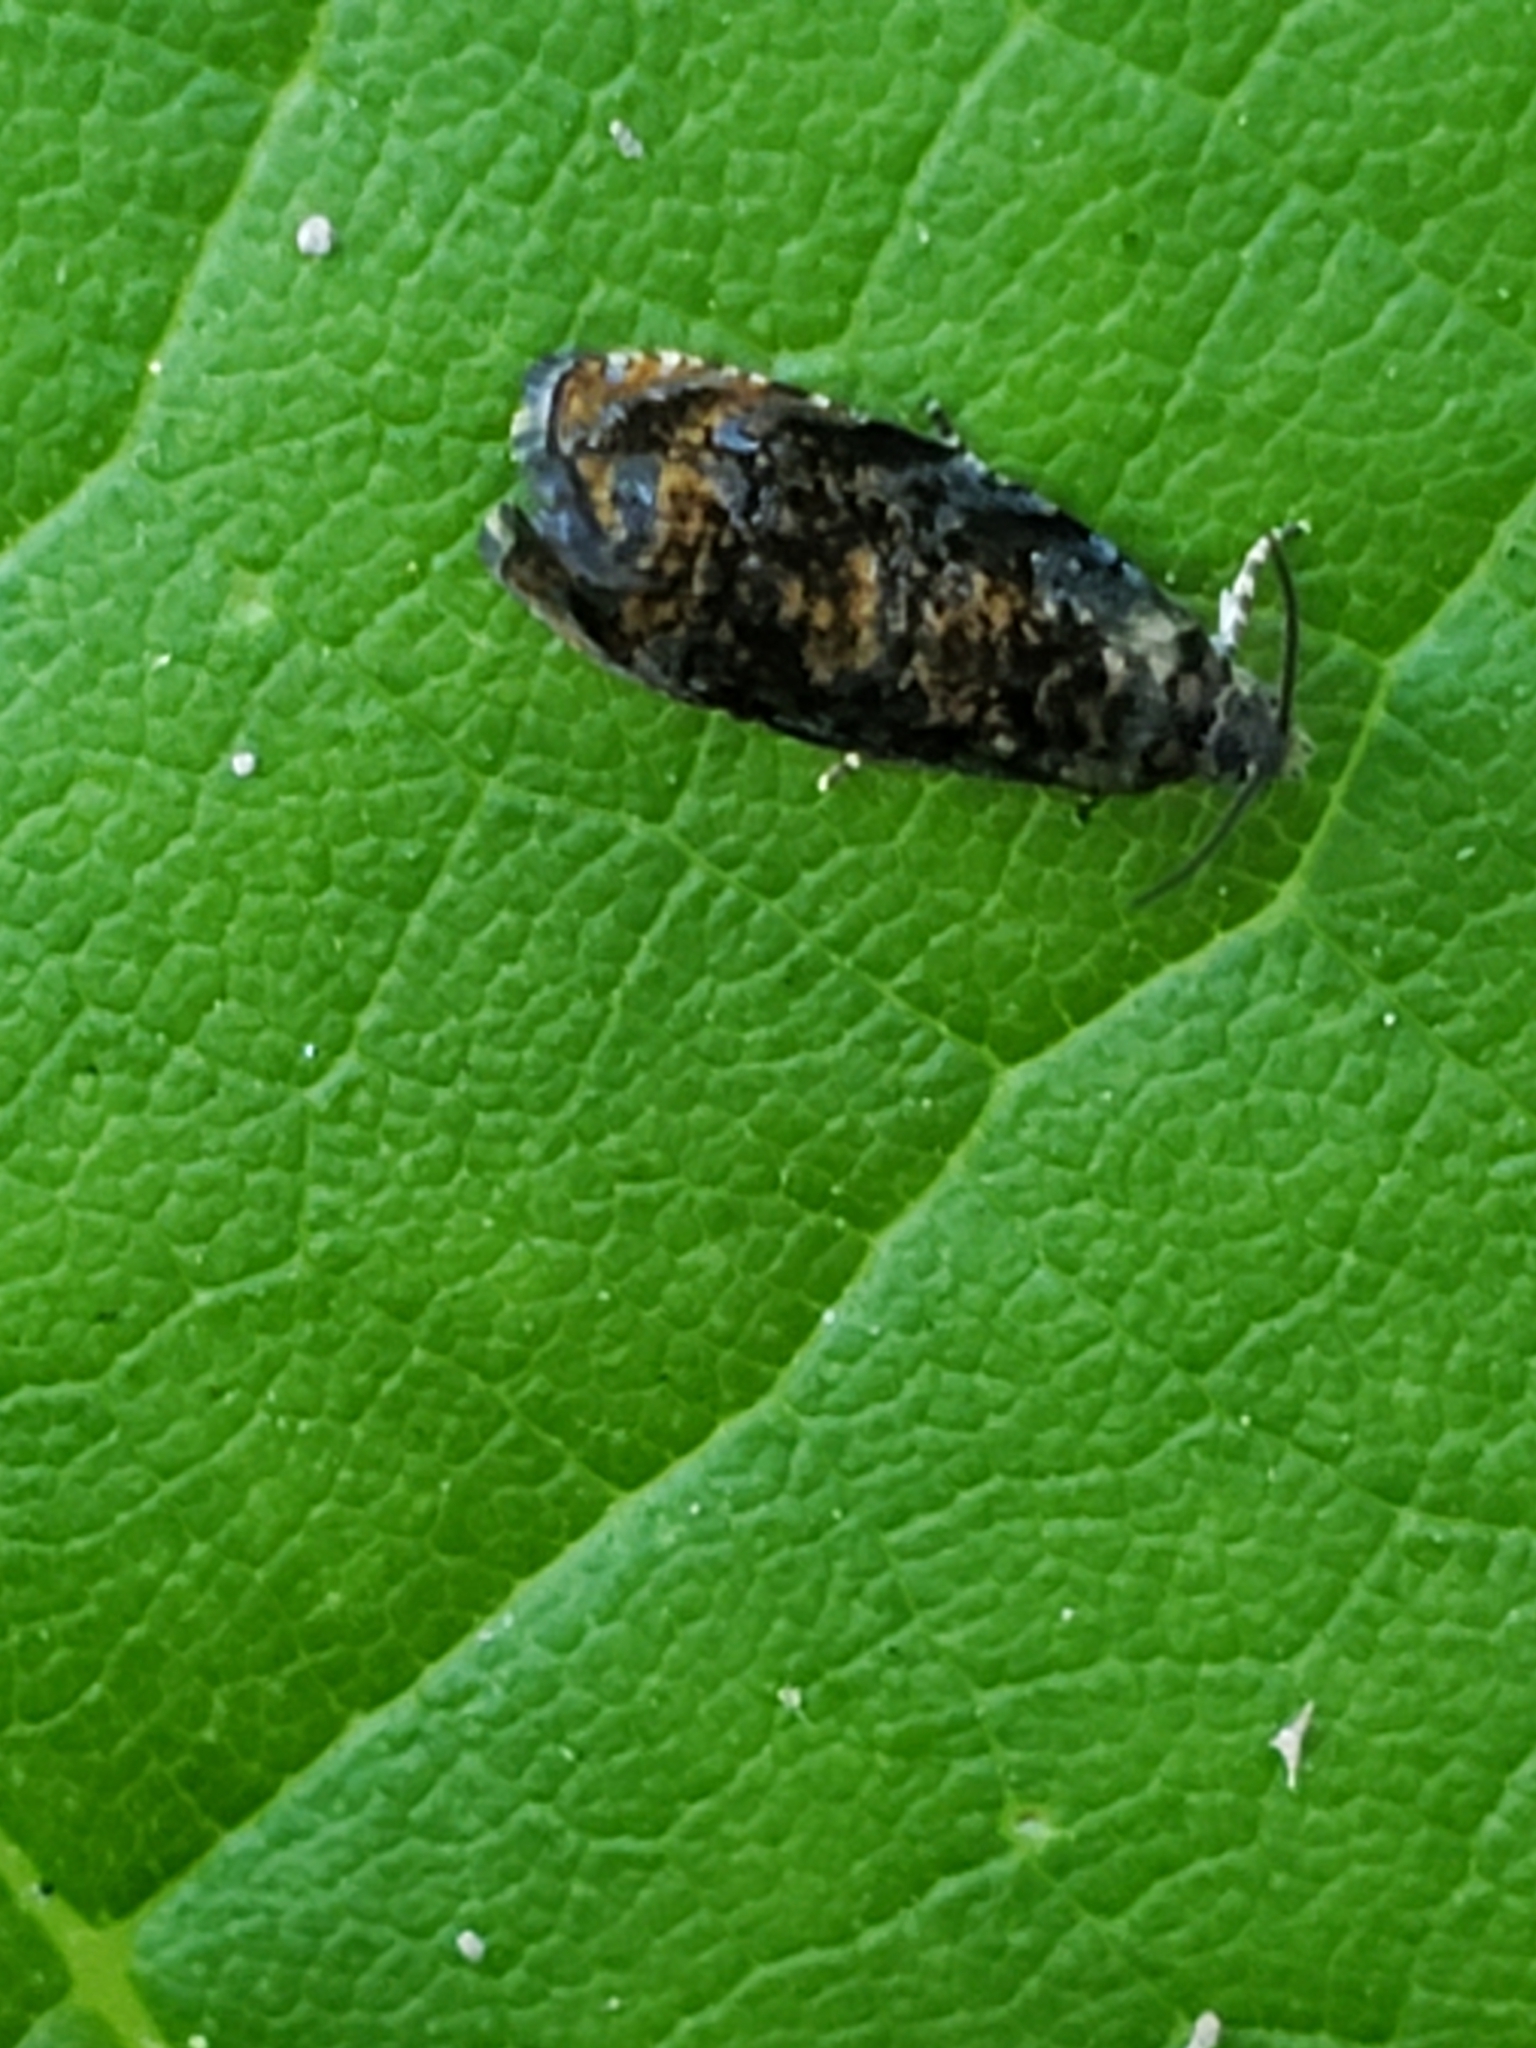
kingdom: Animalia
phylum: Arthropoda
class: Insecta
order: Lepidoptera
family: Tortricidae
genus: Endothenia
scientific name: Endothenia hebesana
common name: Verbena bud moth
